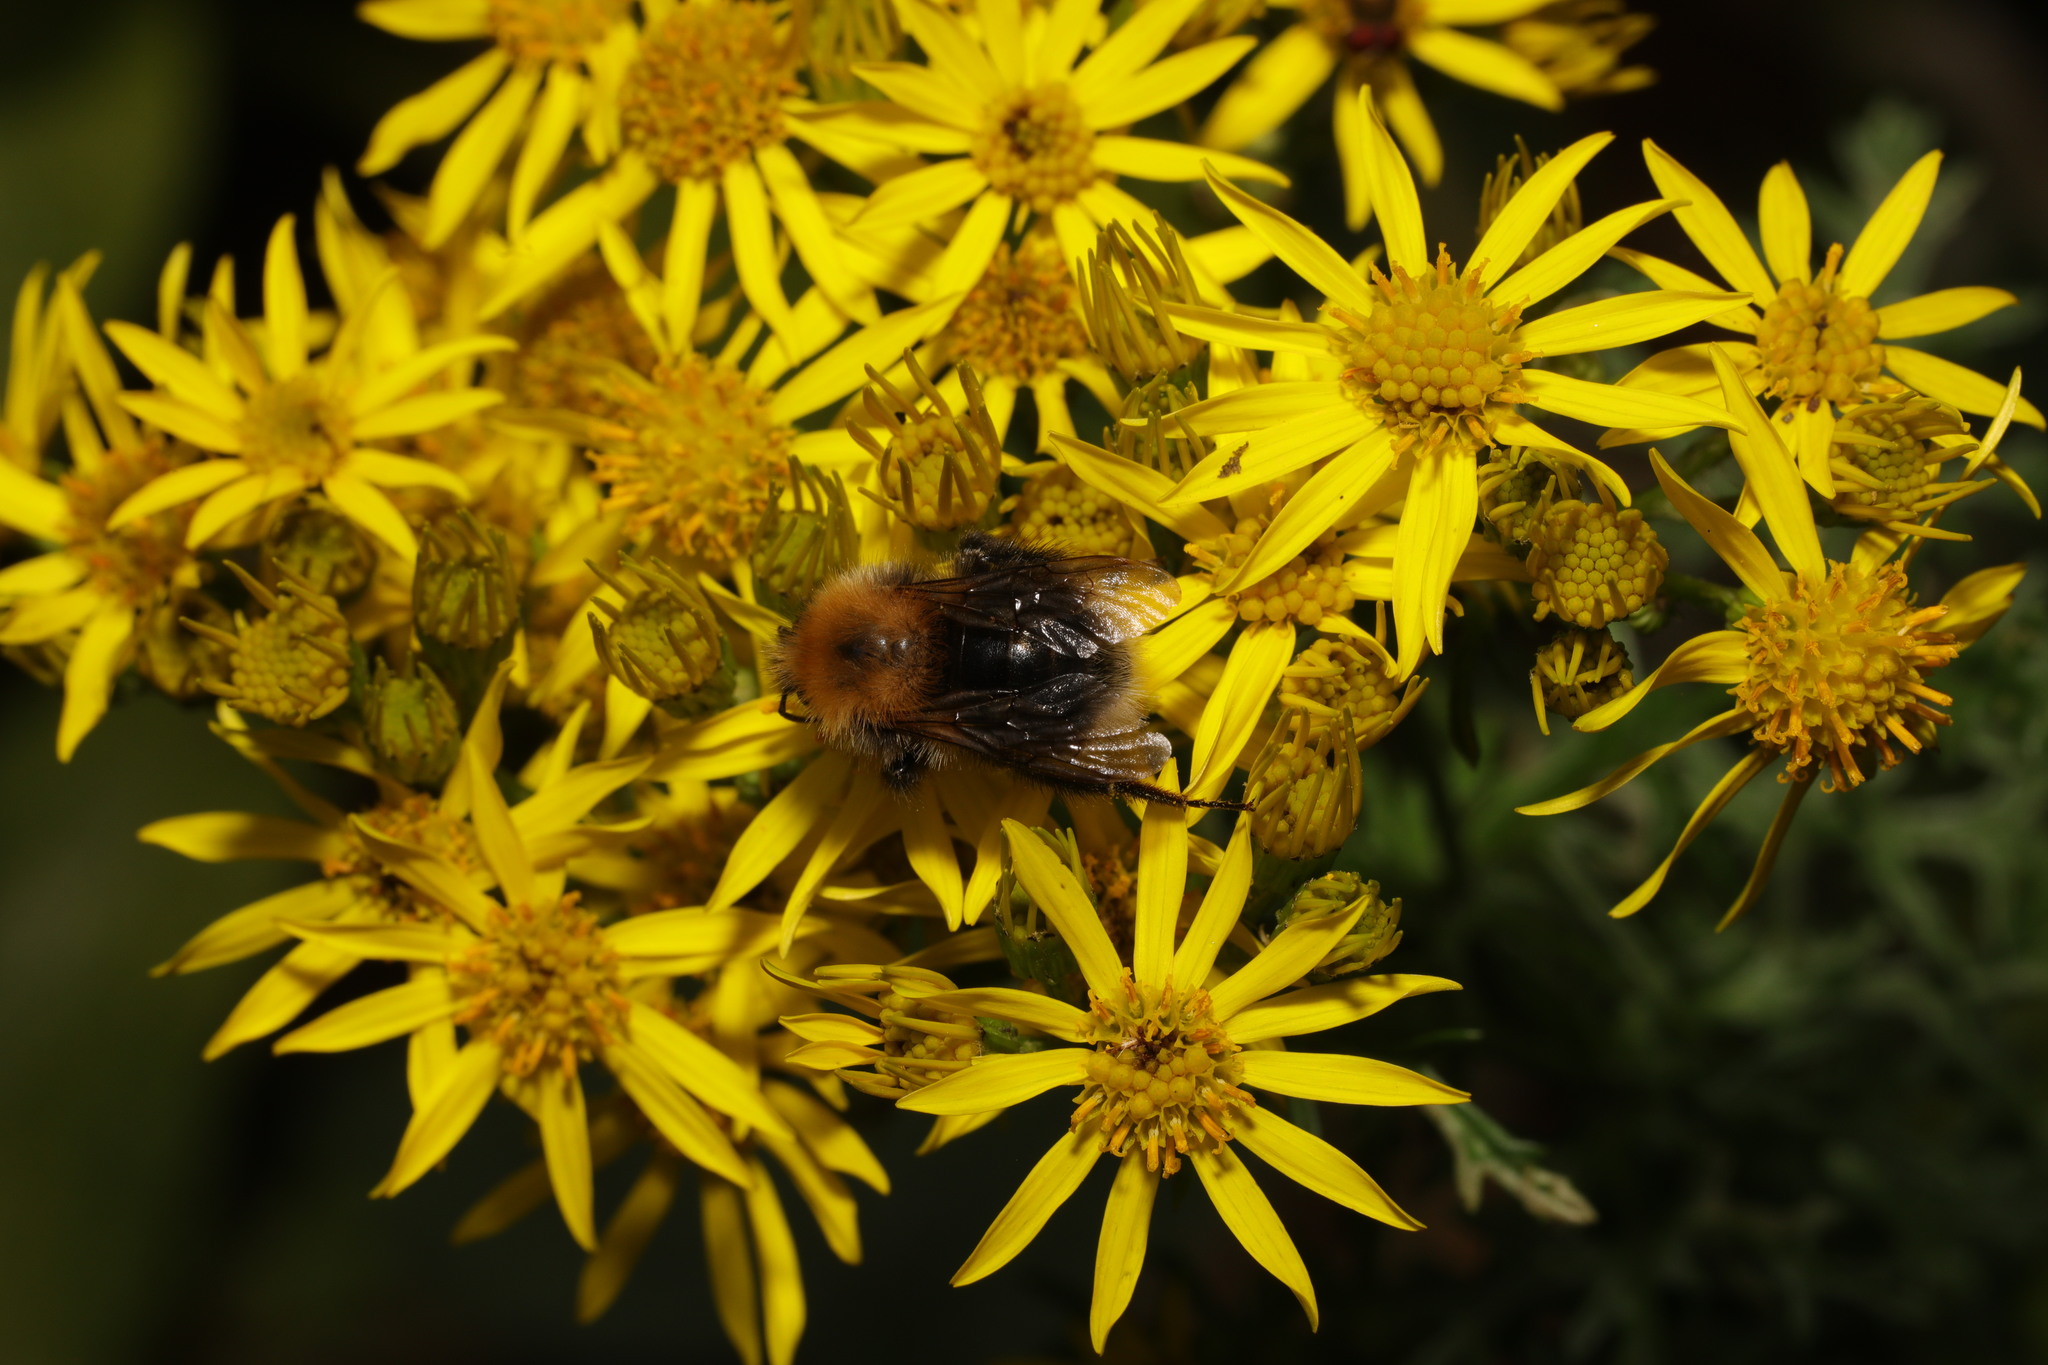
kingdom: Animalia
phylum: Arthropoda
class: Insecta
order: Hymenoptera
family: Apidae
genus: Bombus
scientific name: Bombus hypnorum
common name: New garden bumblebee
